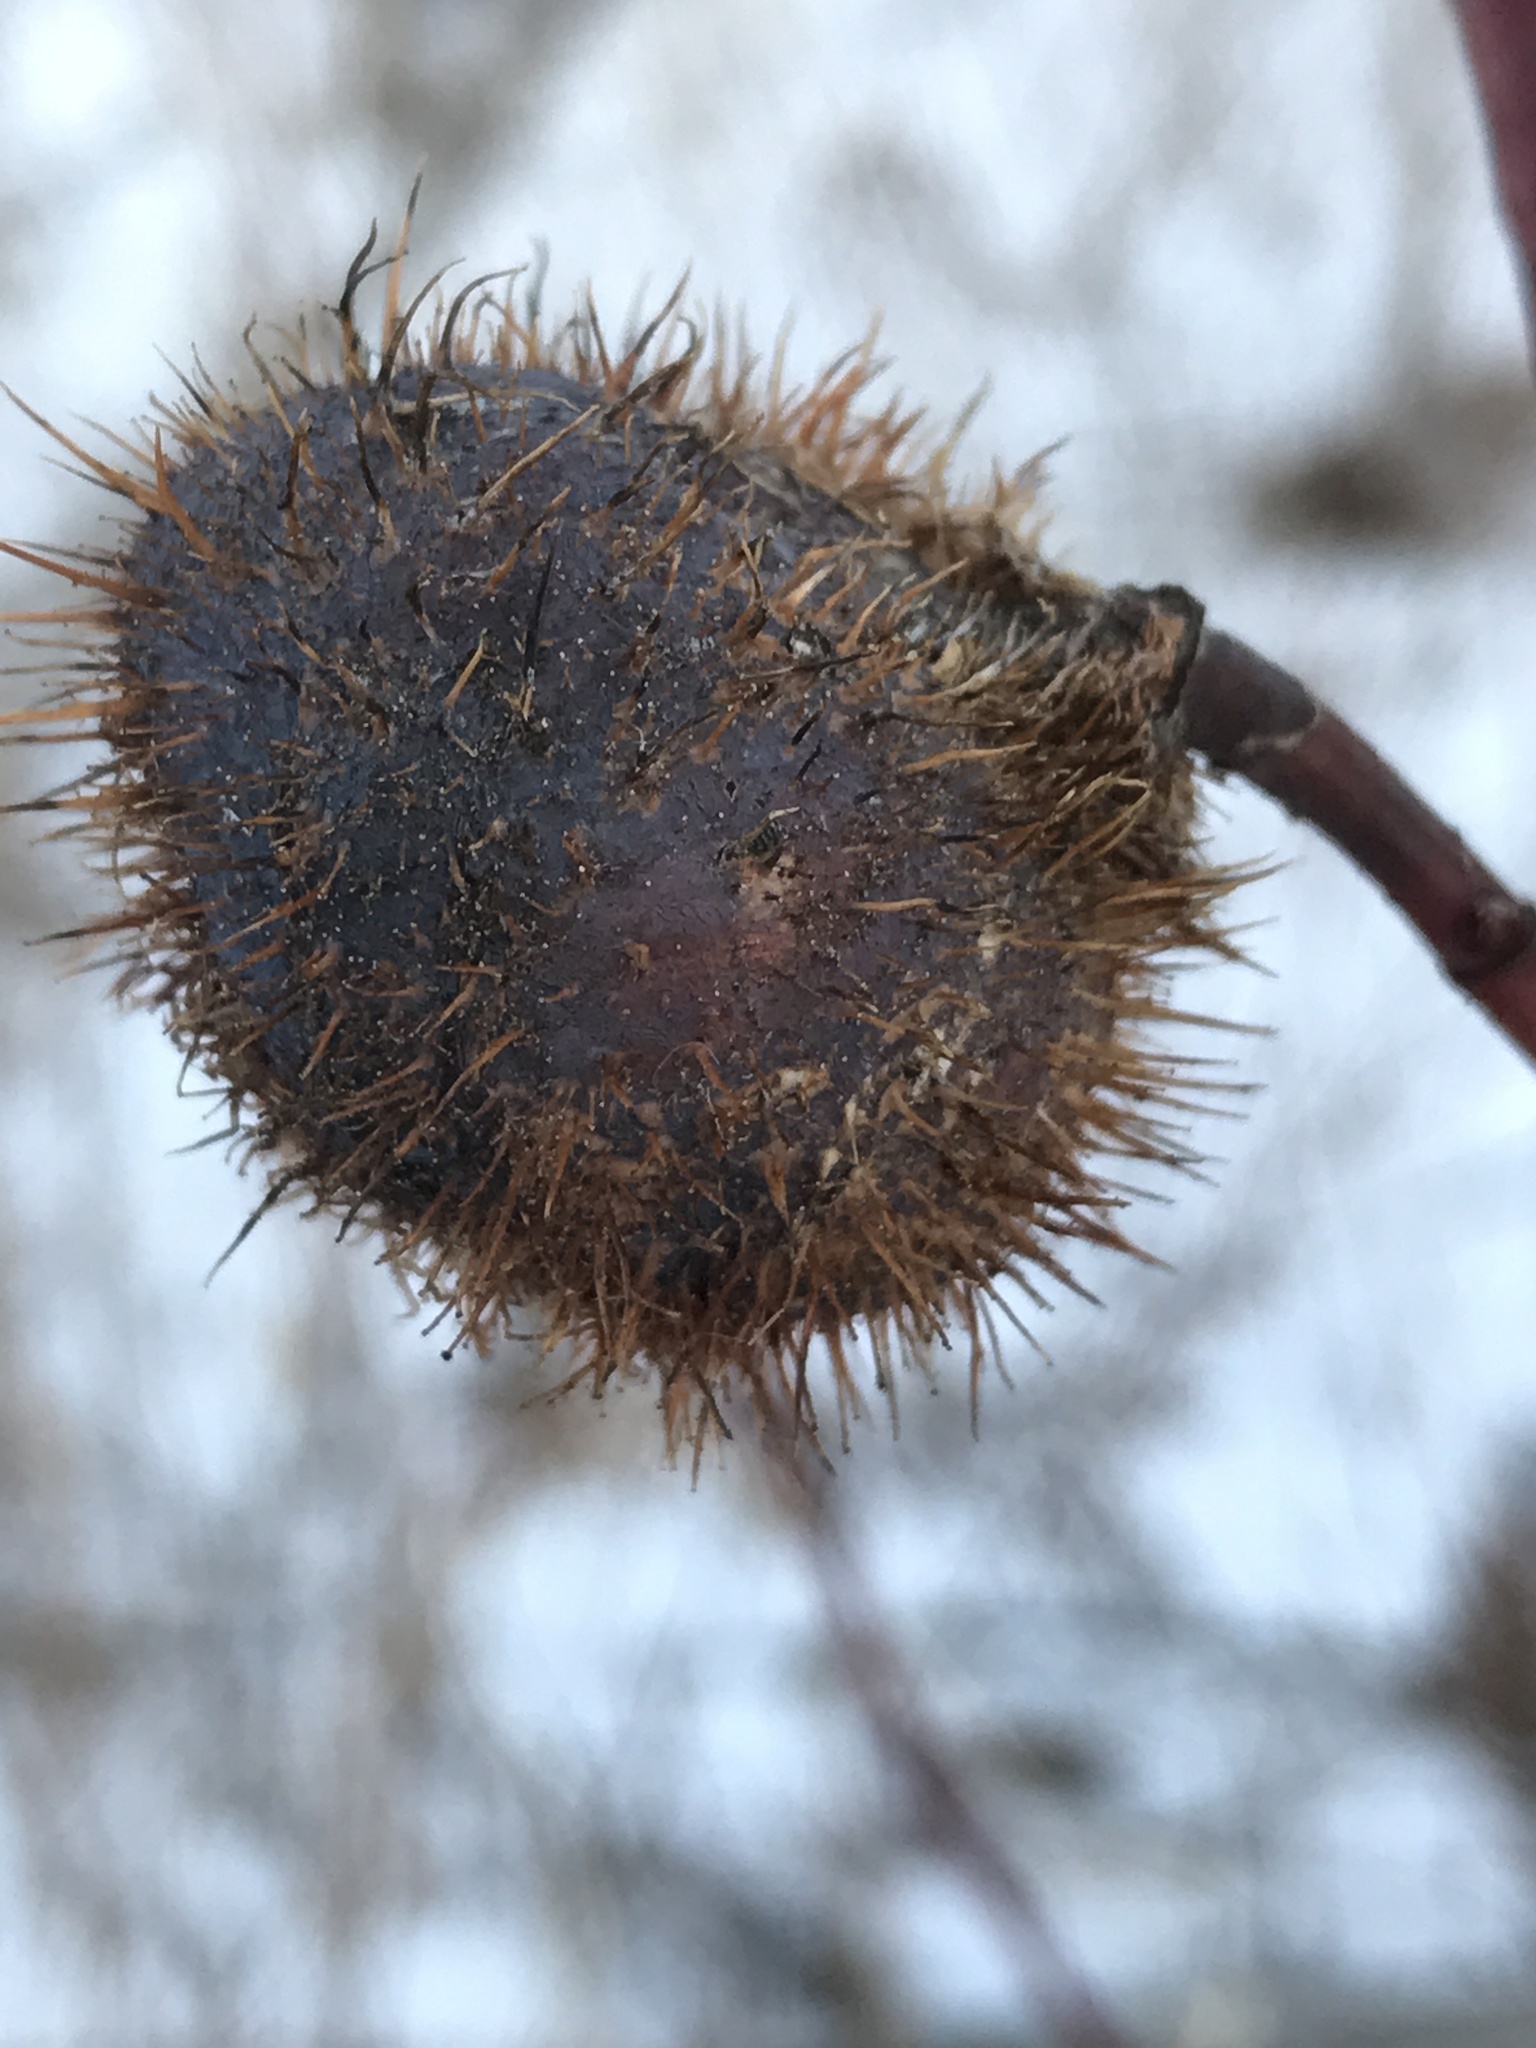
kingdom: Animalia
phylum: Arthropoda
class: Insecta
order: Hymenoptera
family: Cynipidae
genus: Diplolepis
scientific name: Diplolepis spinosa
